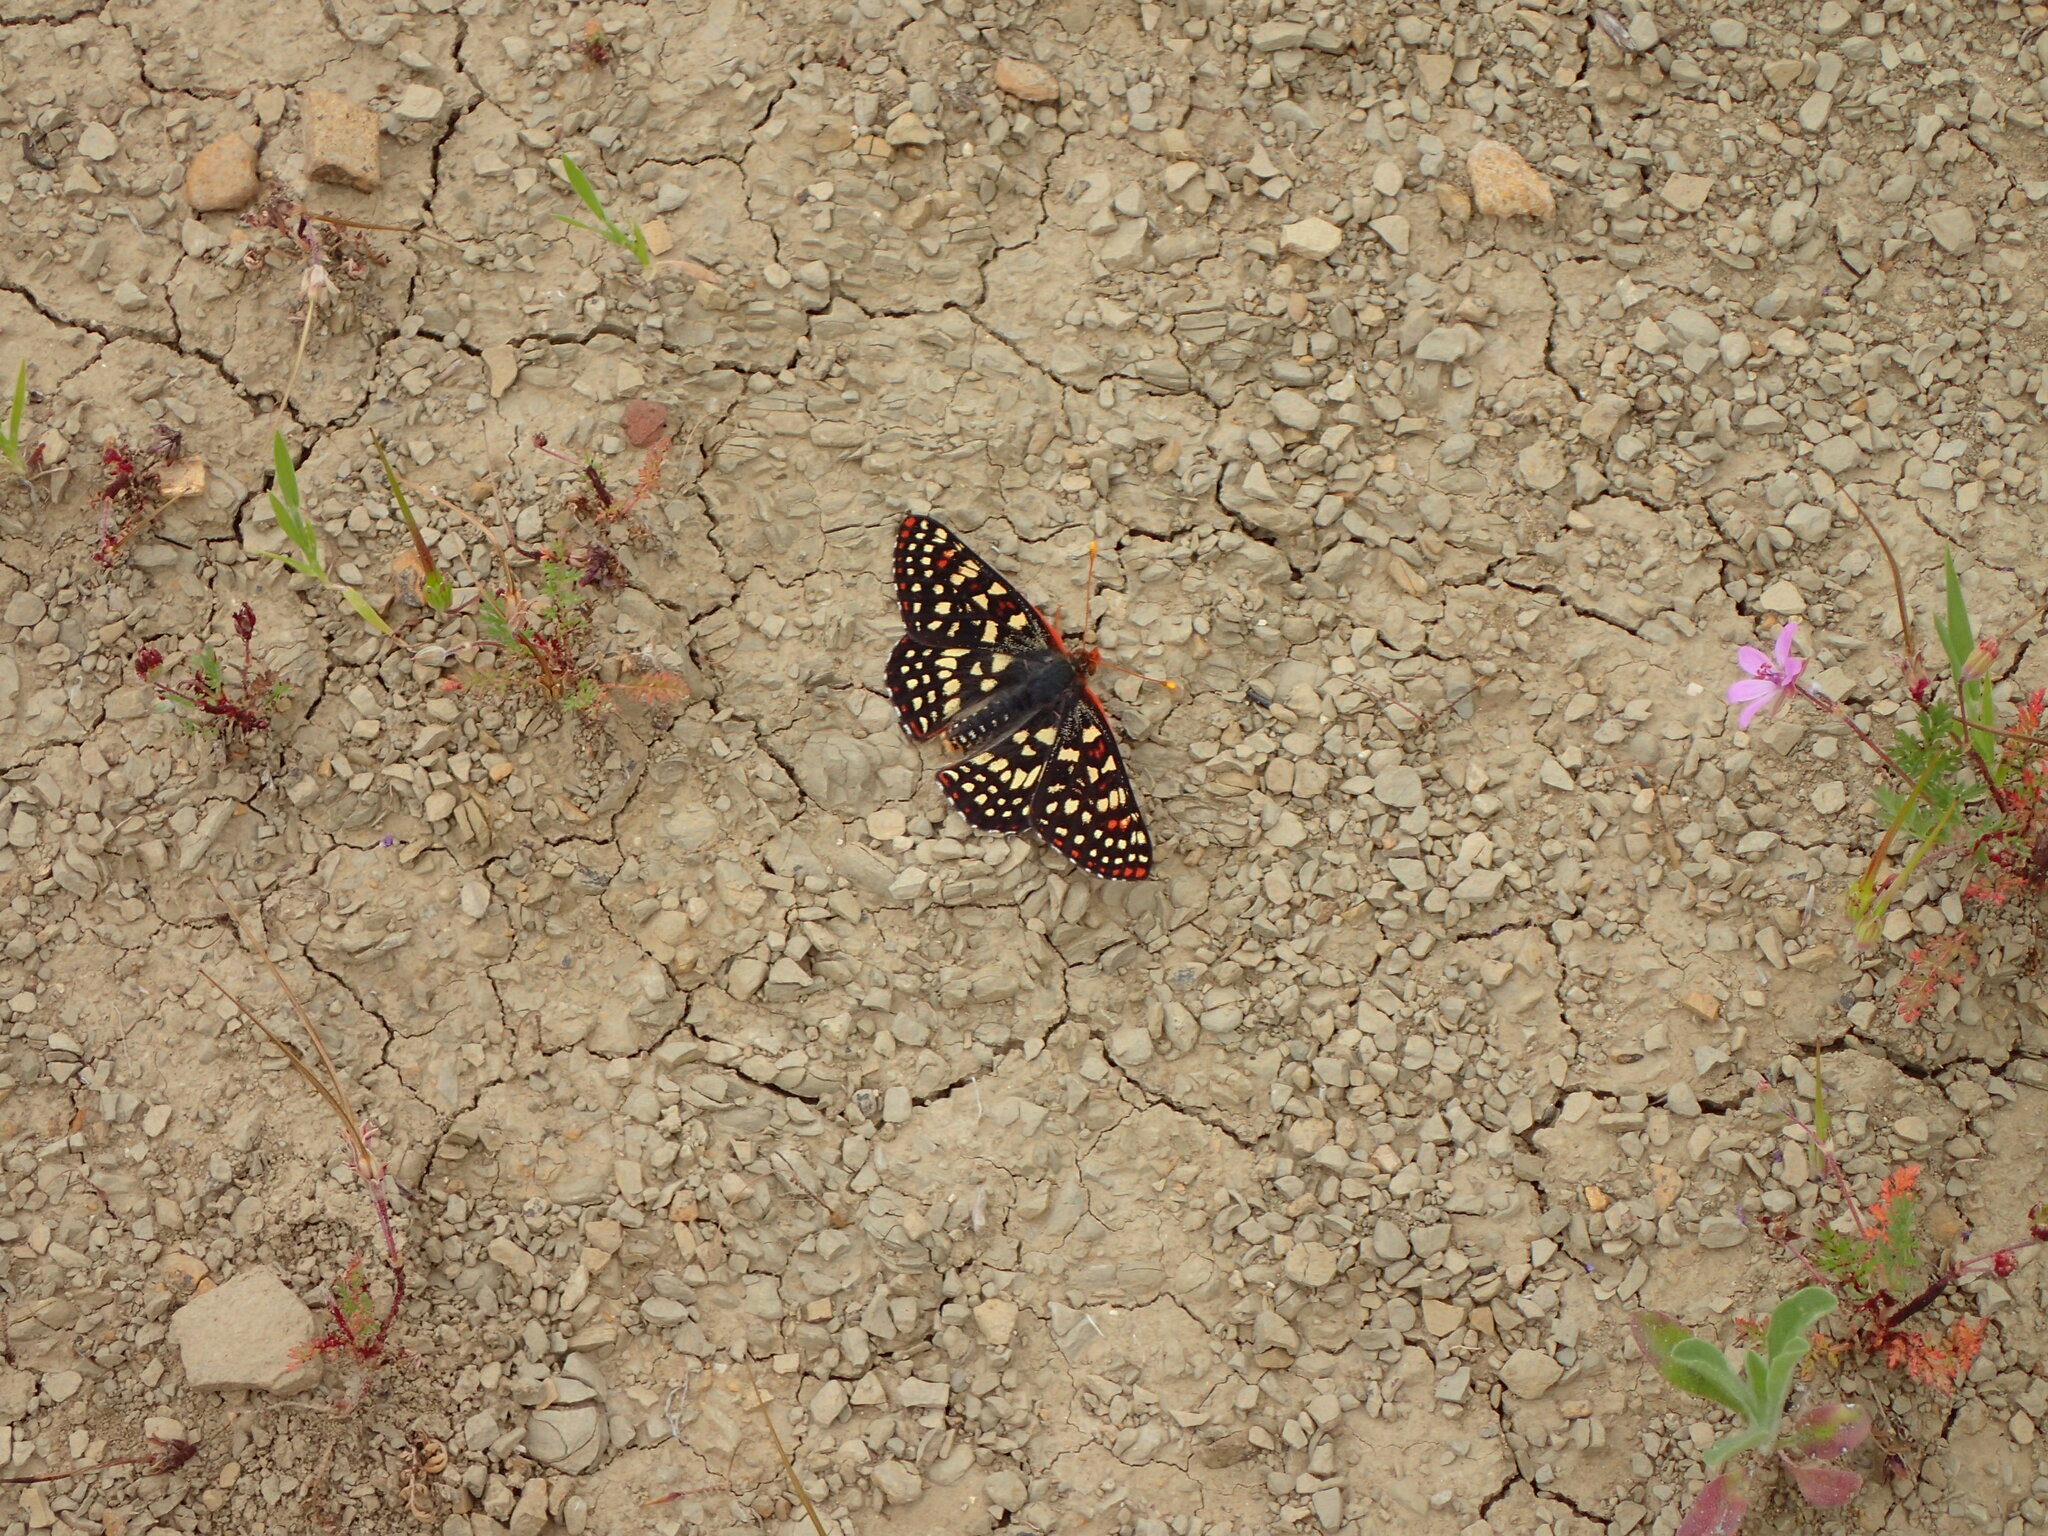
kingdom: Animalia
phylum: Arthropoda
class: Insecta
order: Lepidoptera
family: Nymphalidae
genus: Occidryas
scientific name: Occidryas chalcedona
